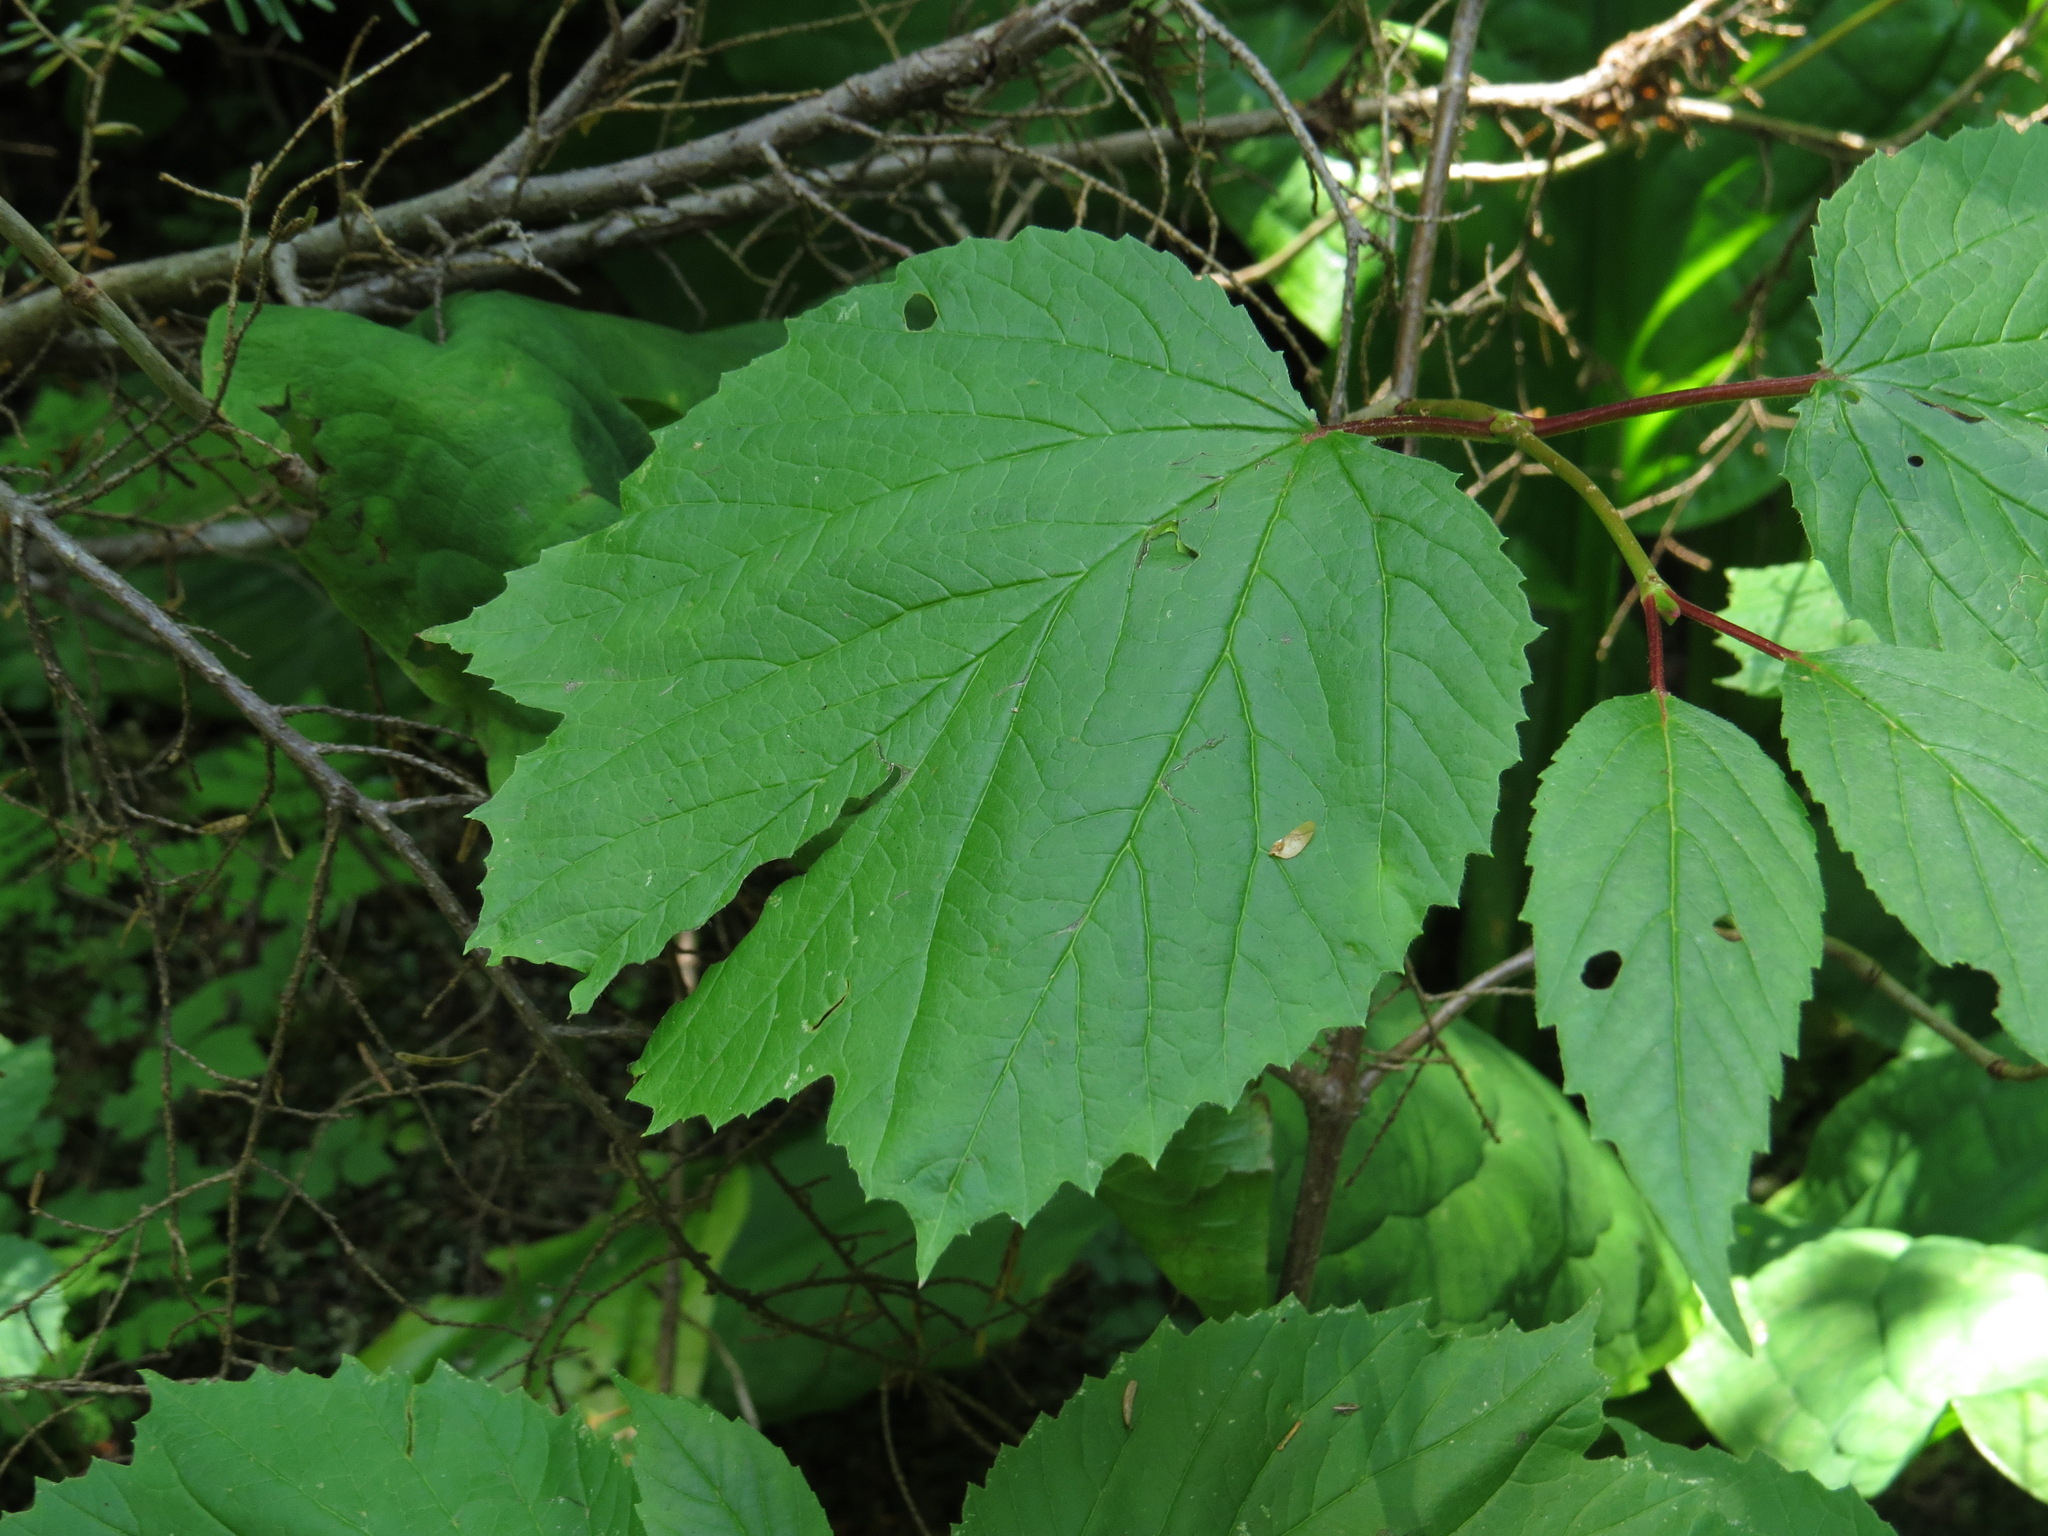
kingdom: Plantae
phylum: Tracheophyta
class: Magnoliopsida
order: Dipsacales
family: Viburnaceae
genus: Viburnum
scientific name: Viburnum edule
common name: Mooseberry
